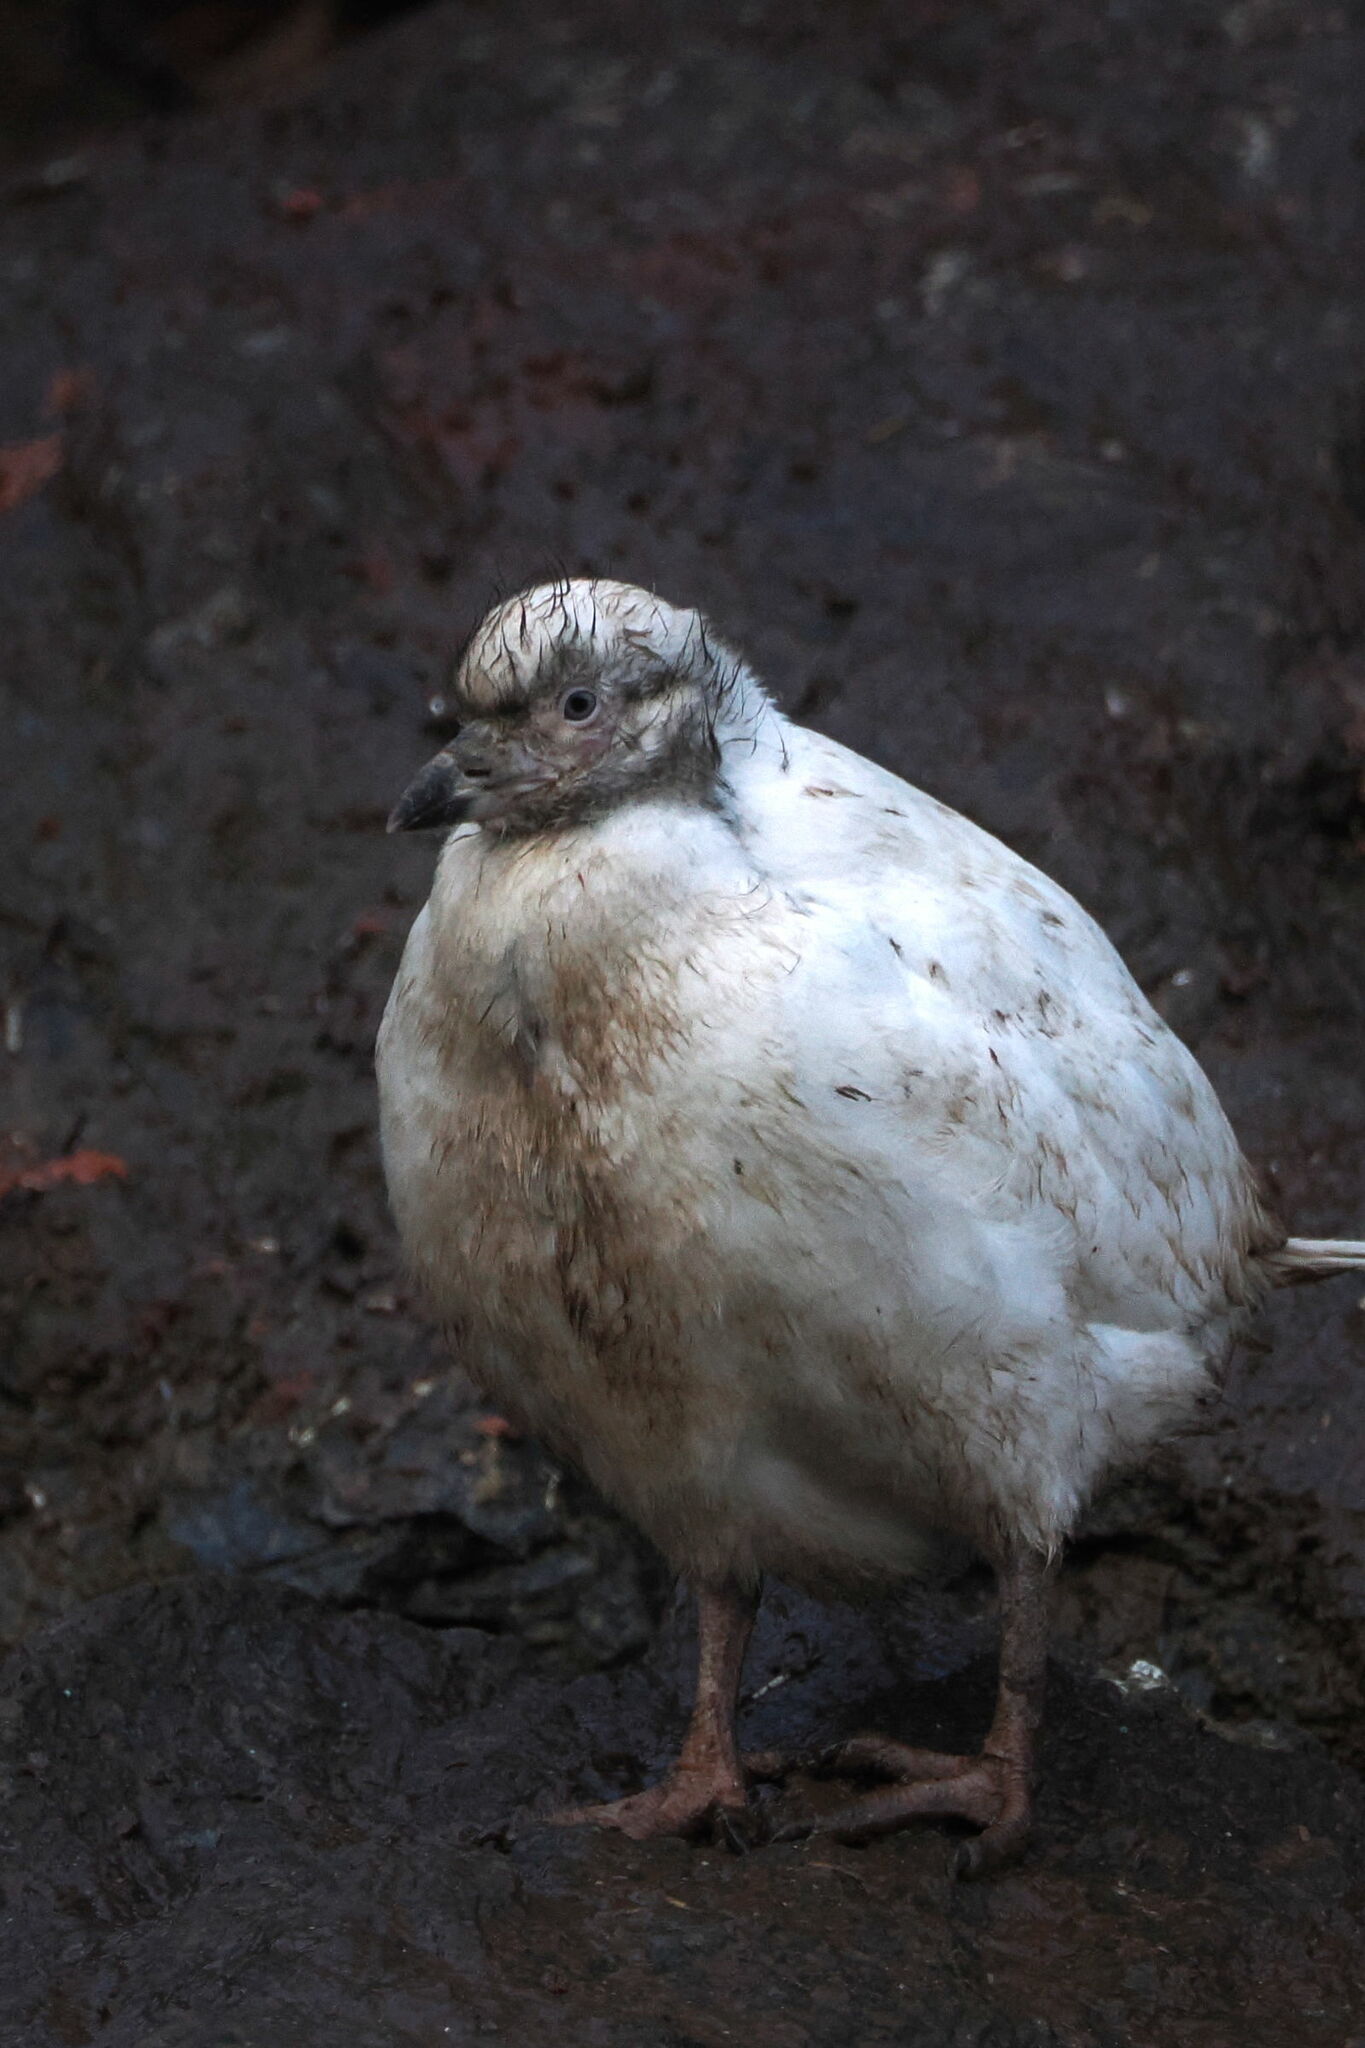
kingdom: Animalia
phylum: Chordata
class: Aves
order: Charadriiformes
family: Chionidae
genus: Chionis
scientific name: Chionis albus
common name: Snowy sheathbill
